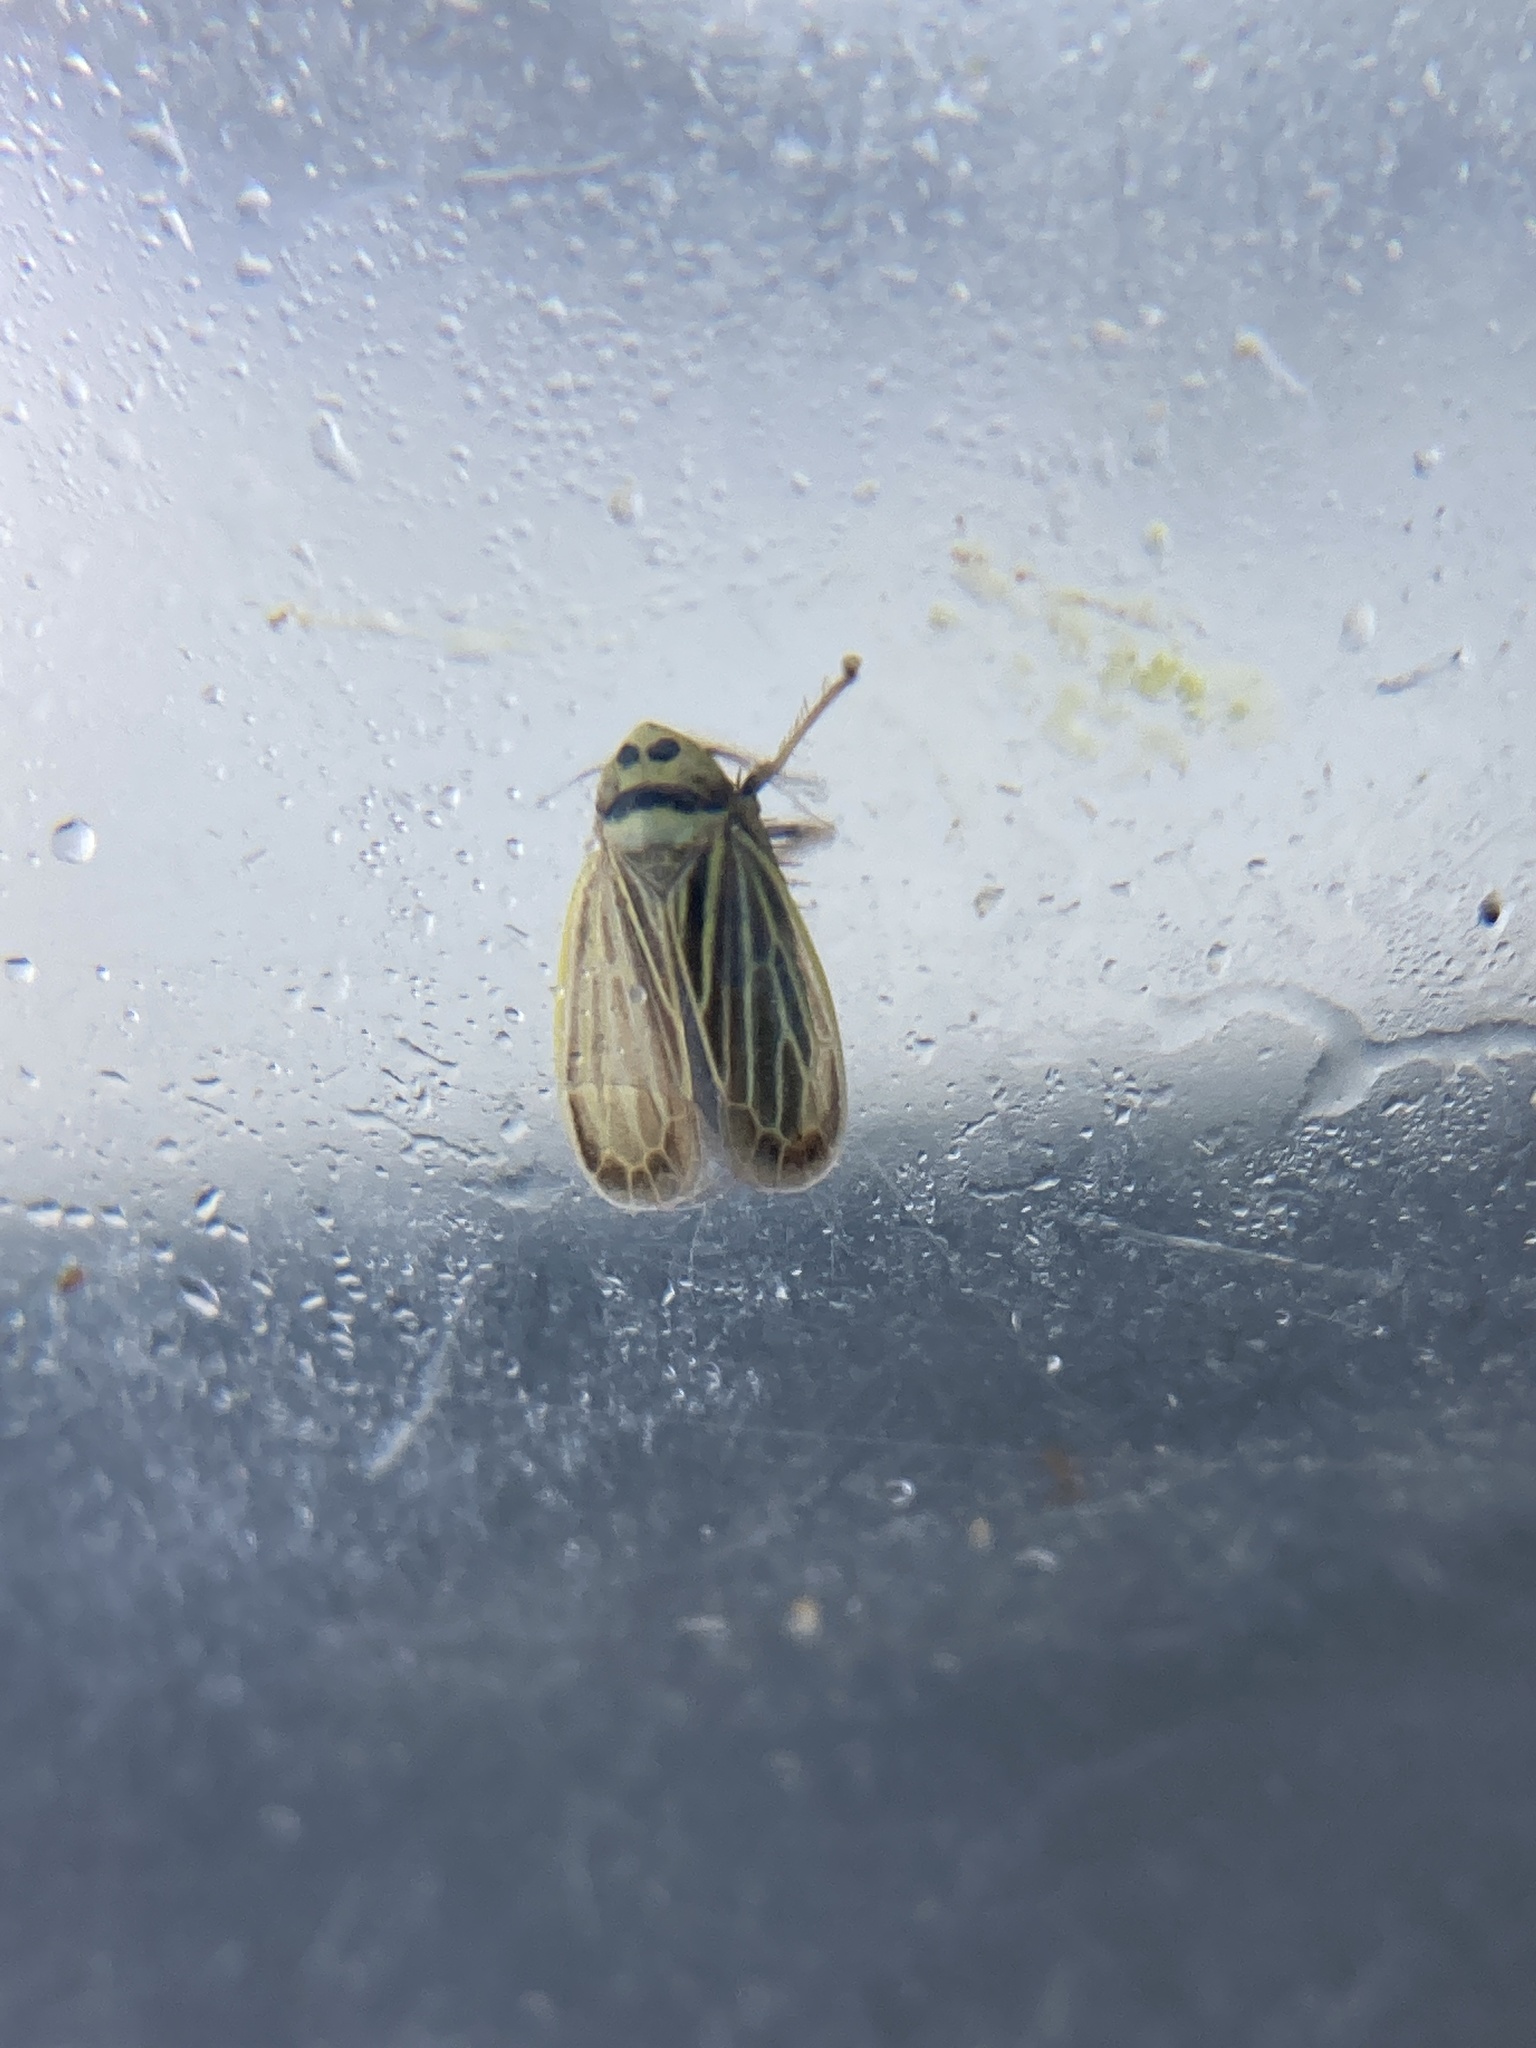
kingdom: Animalia
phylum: Arthropoda
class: Insecta
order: Hemiptera
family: Cicadellidae
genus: Amblysellus
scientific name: Amblysellus curtisii
